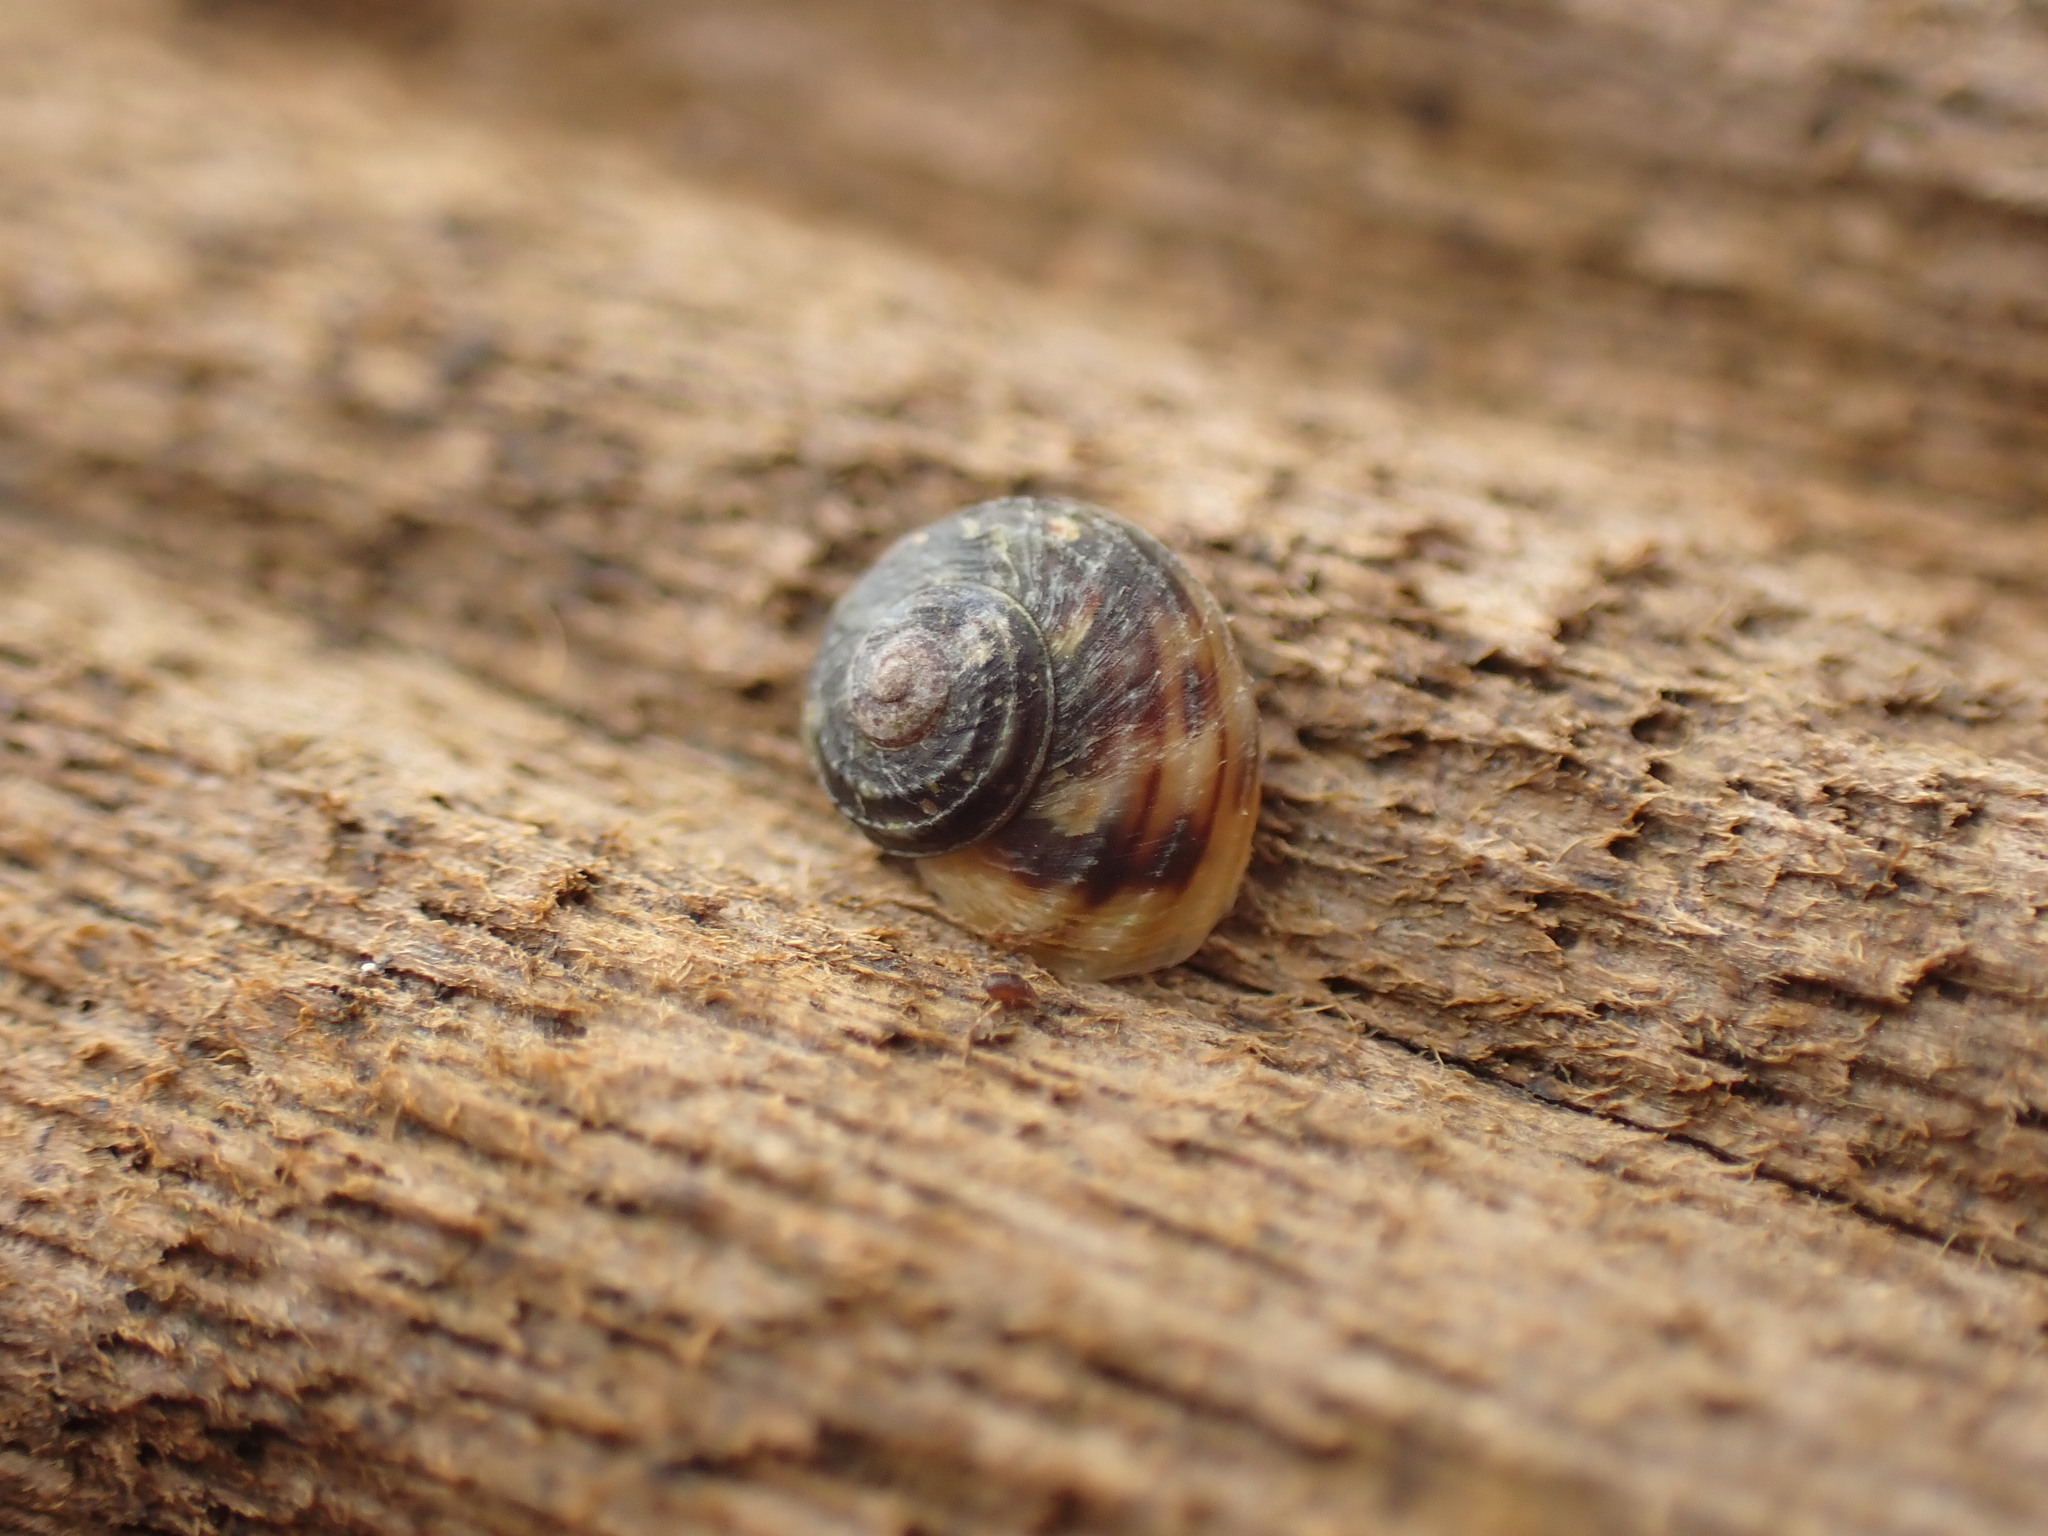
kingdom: Animalia
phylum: Mollusca
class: Gastropoda
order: Littorinimorpha
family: Littorinidae
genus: Risellopsis
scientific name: Risellopsis varia
